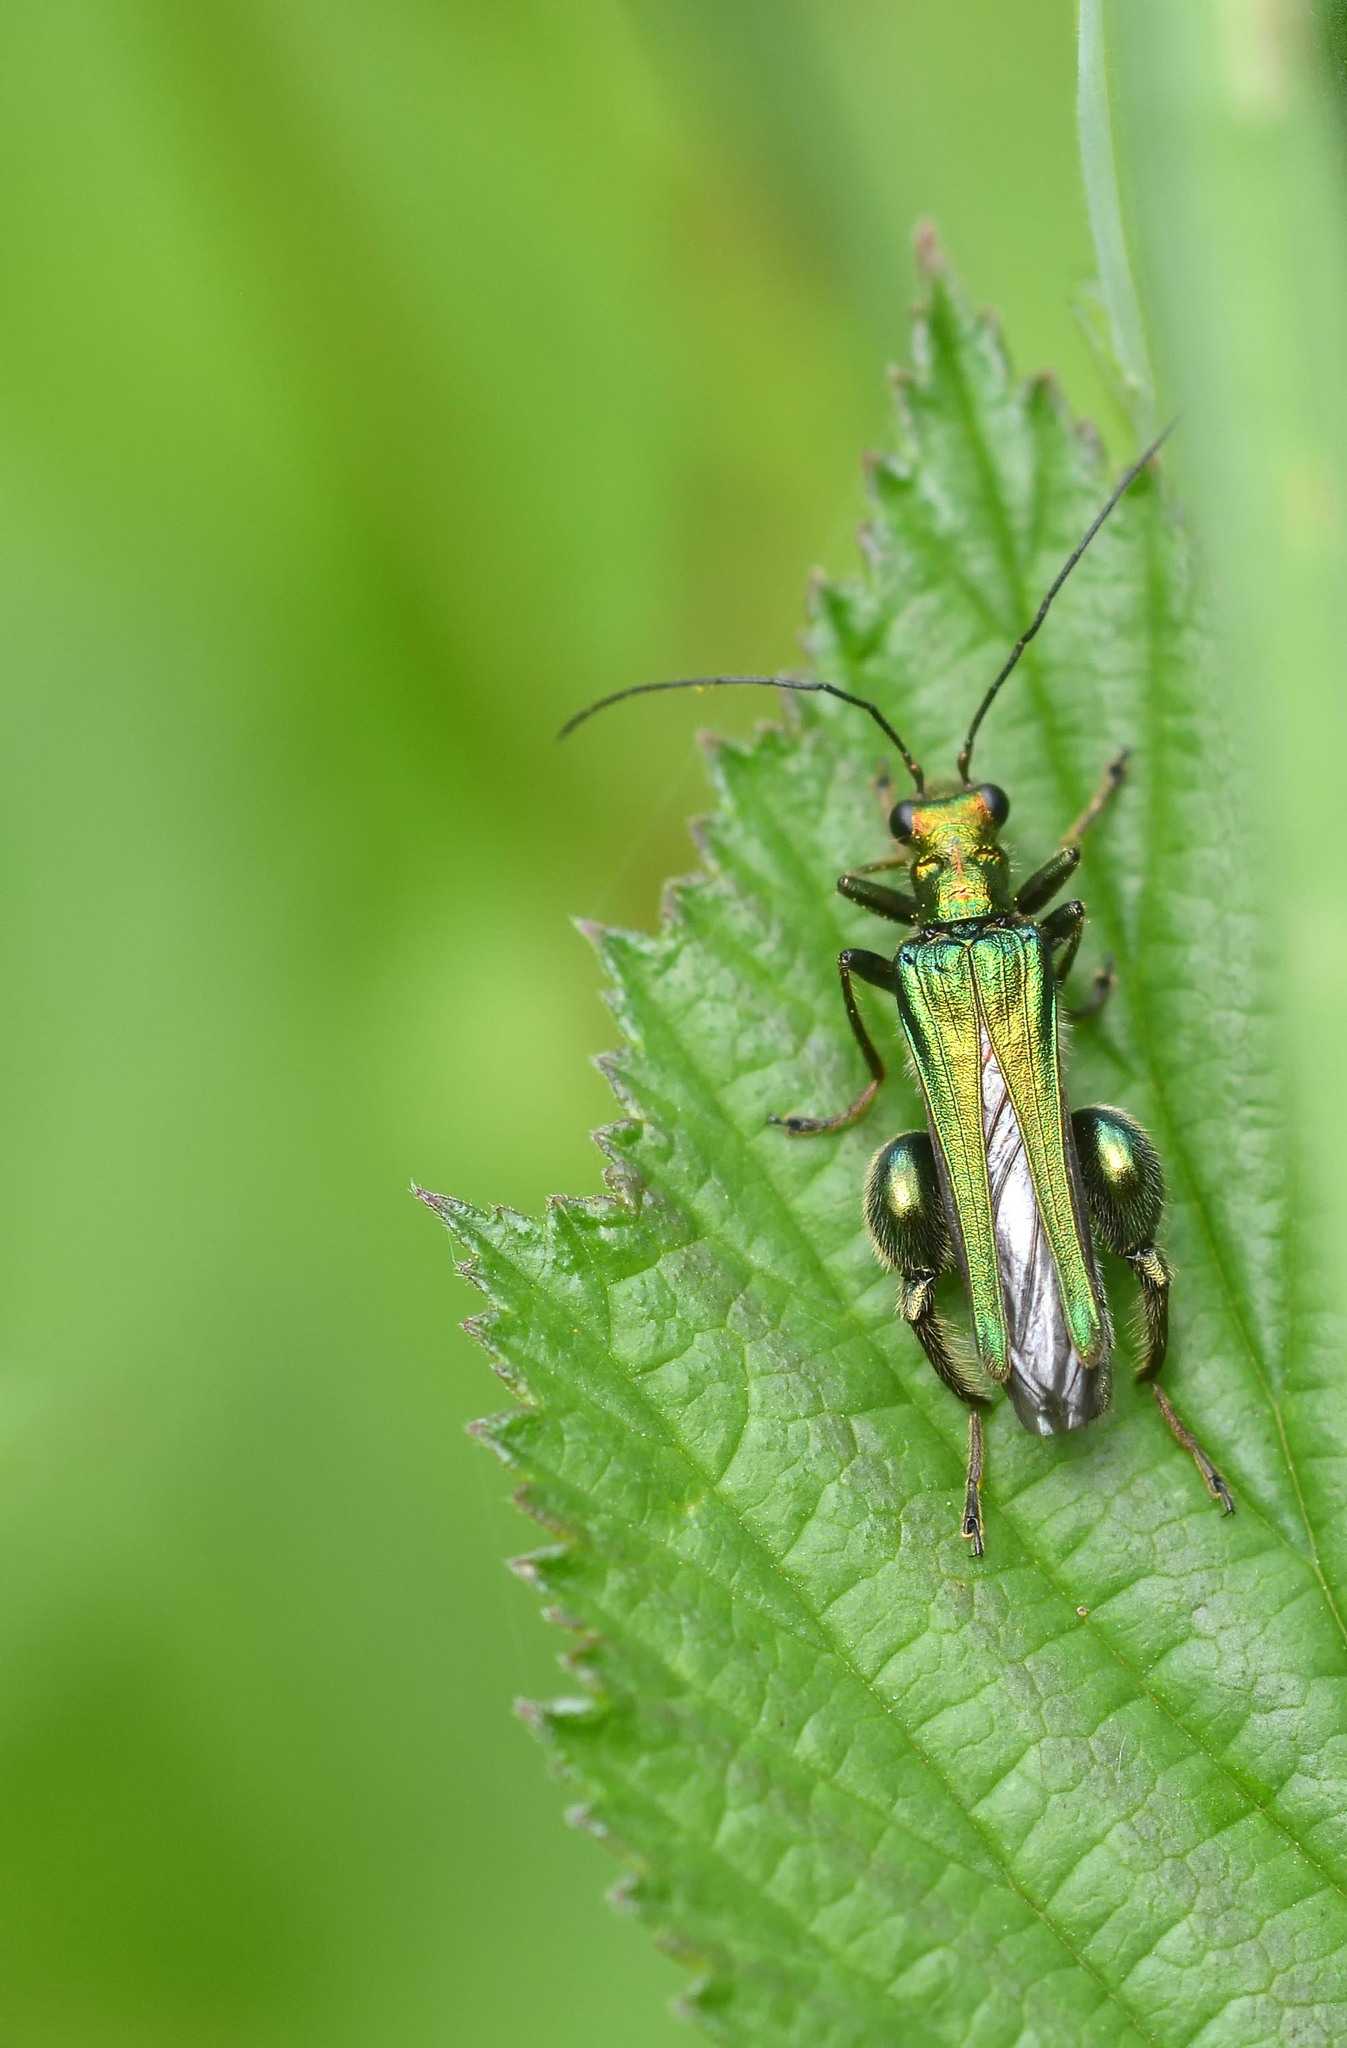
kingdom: Animalia
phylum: Arthropoda
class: Insecta
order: Coleoptera
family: Oedemeridae
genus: Oedemera
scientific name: Oedemera nobilis
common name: Swollen-thighed beetle
